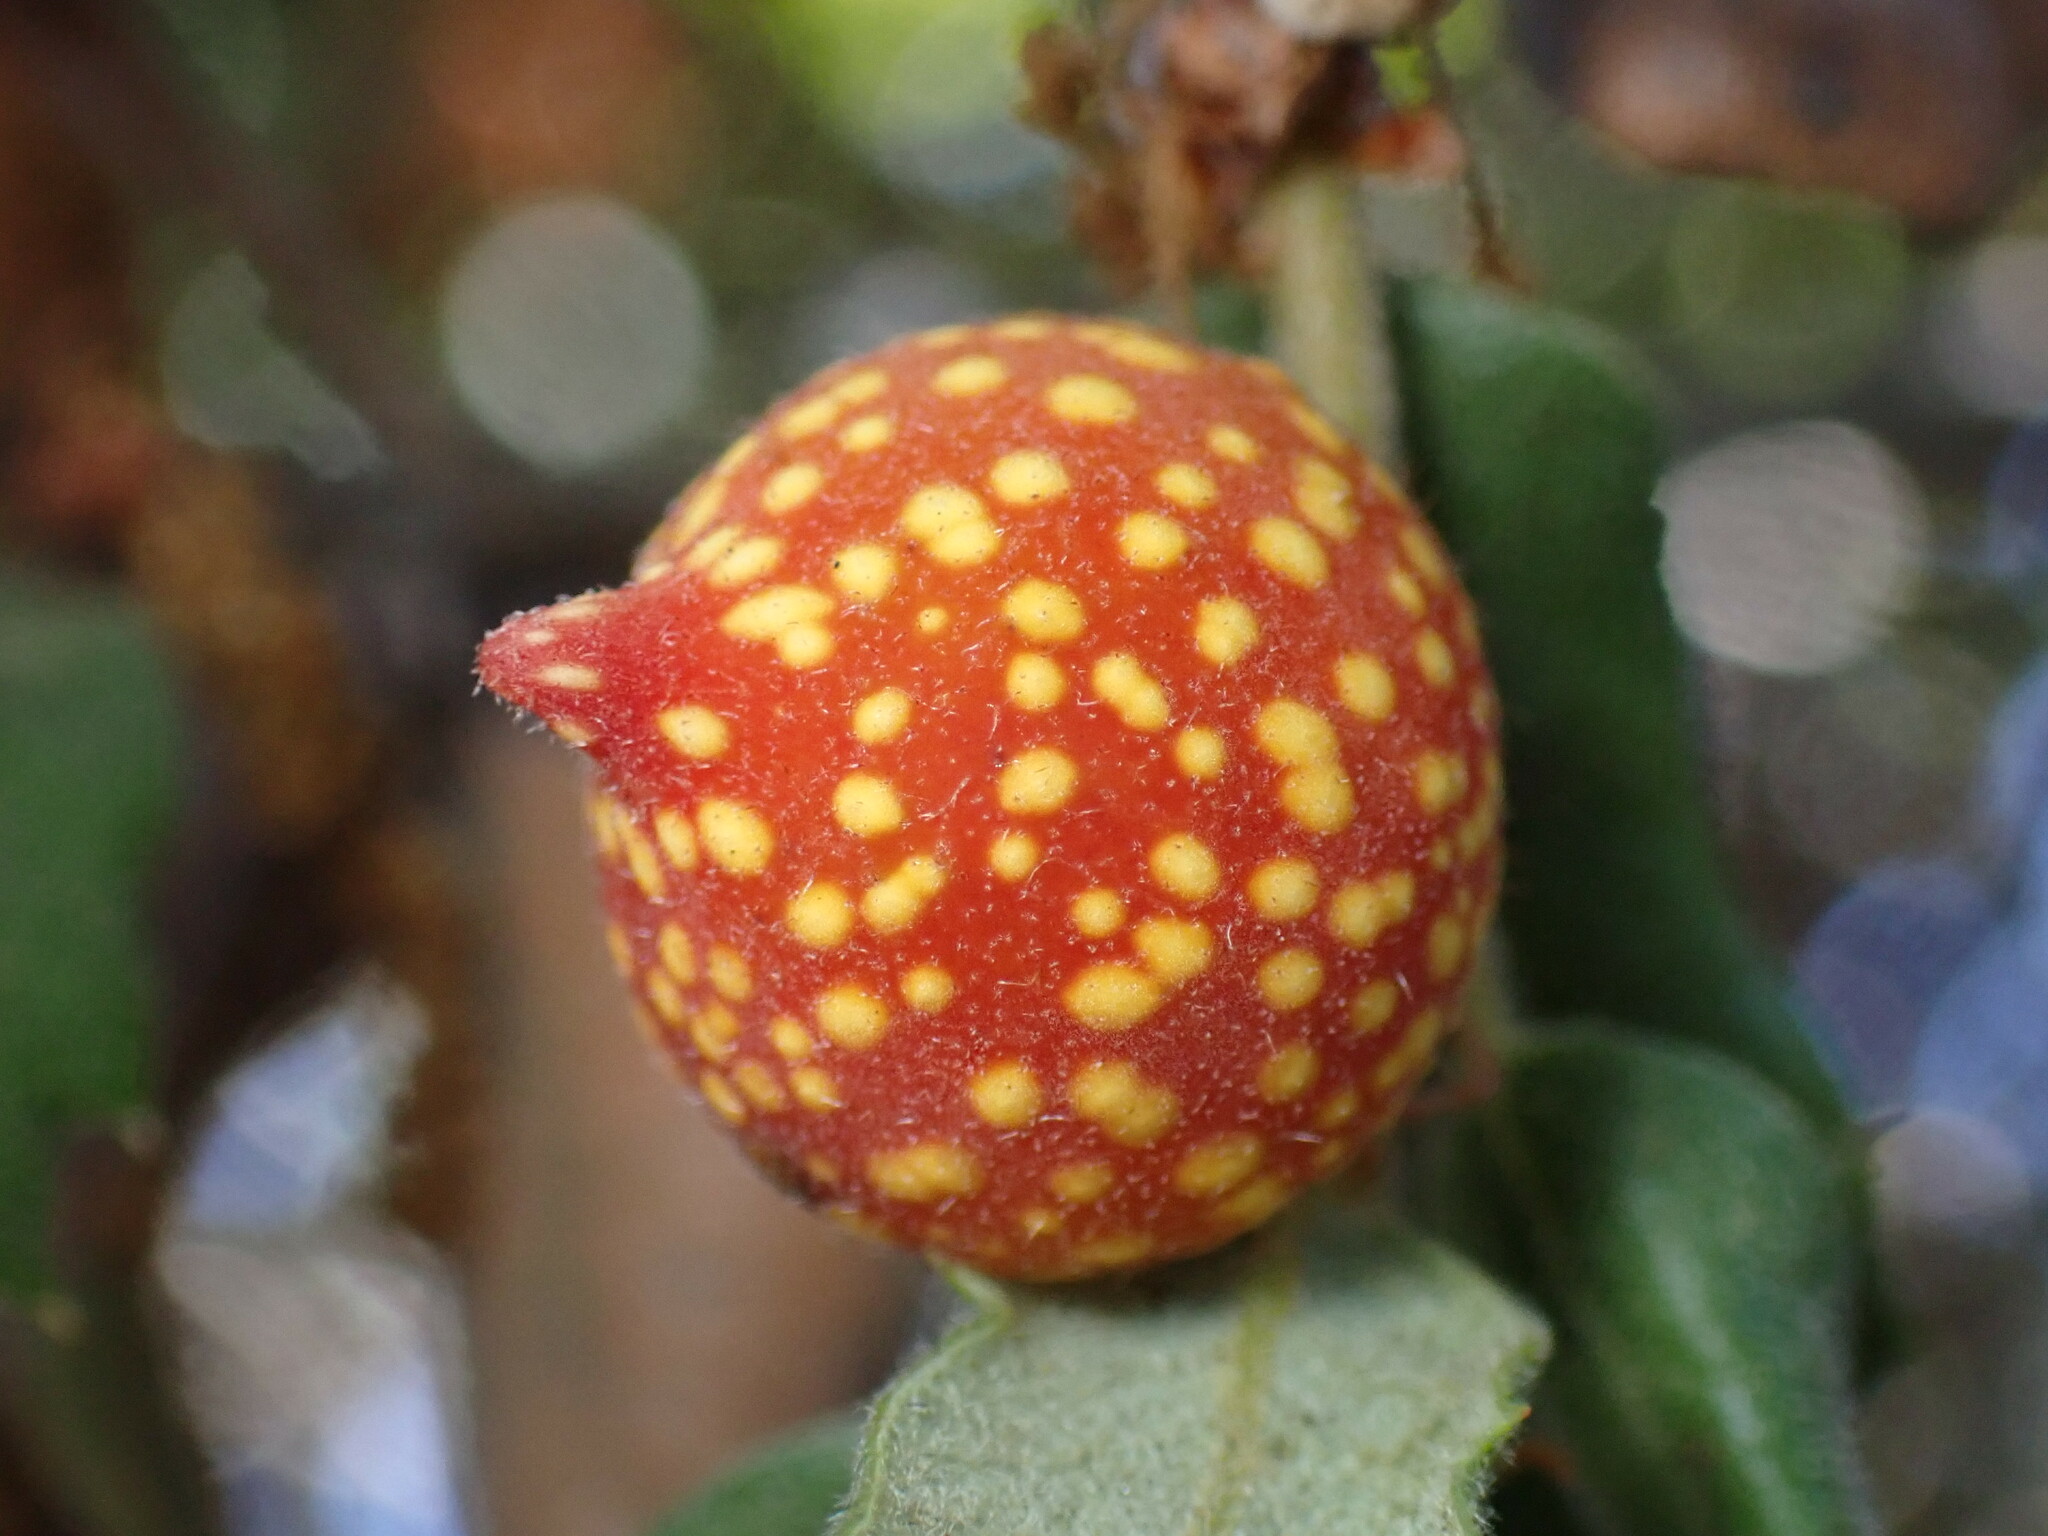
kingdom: Animalia
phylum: Arthropoda
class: Insecta
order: Hymenoptera
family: Cynipidae
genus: Burnettweldia
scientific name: Burnettweldia
